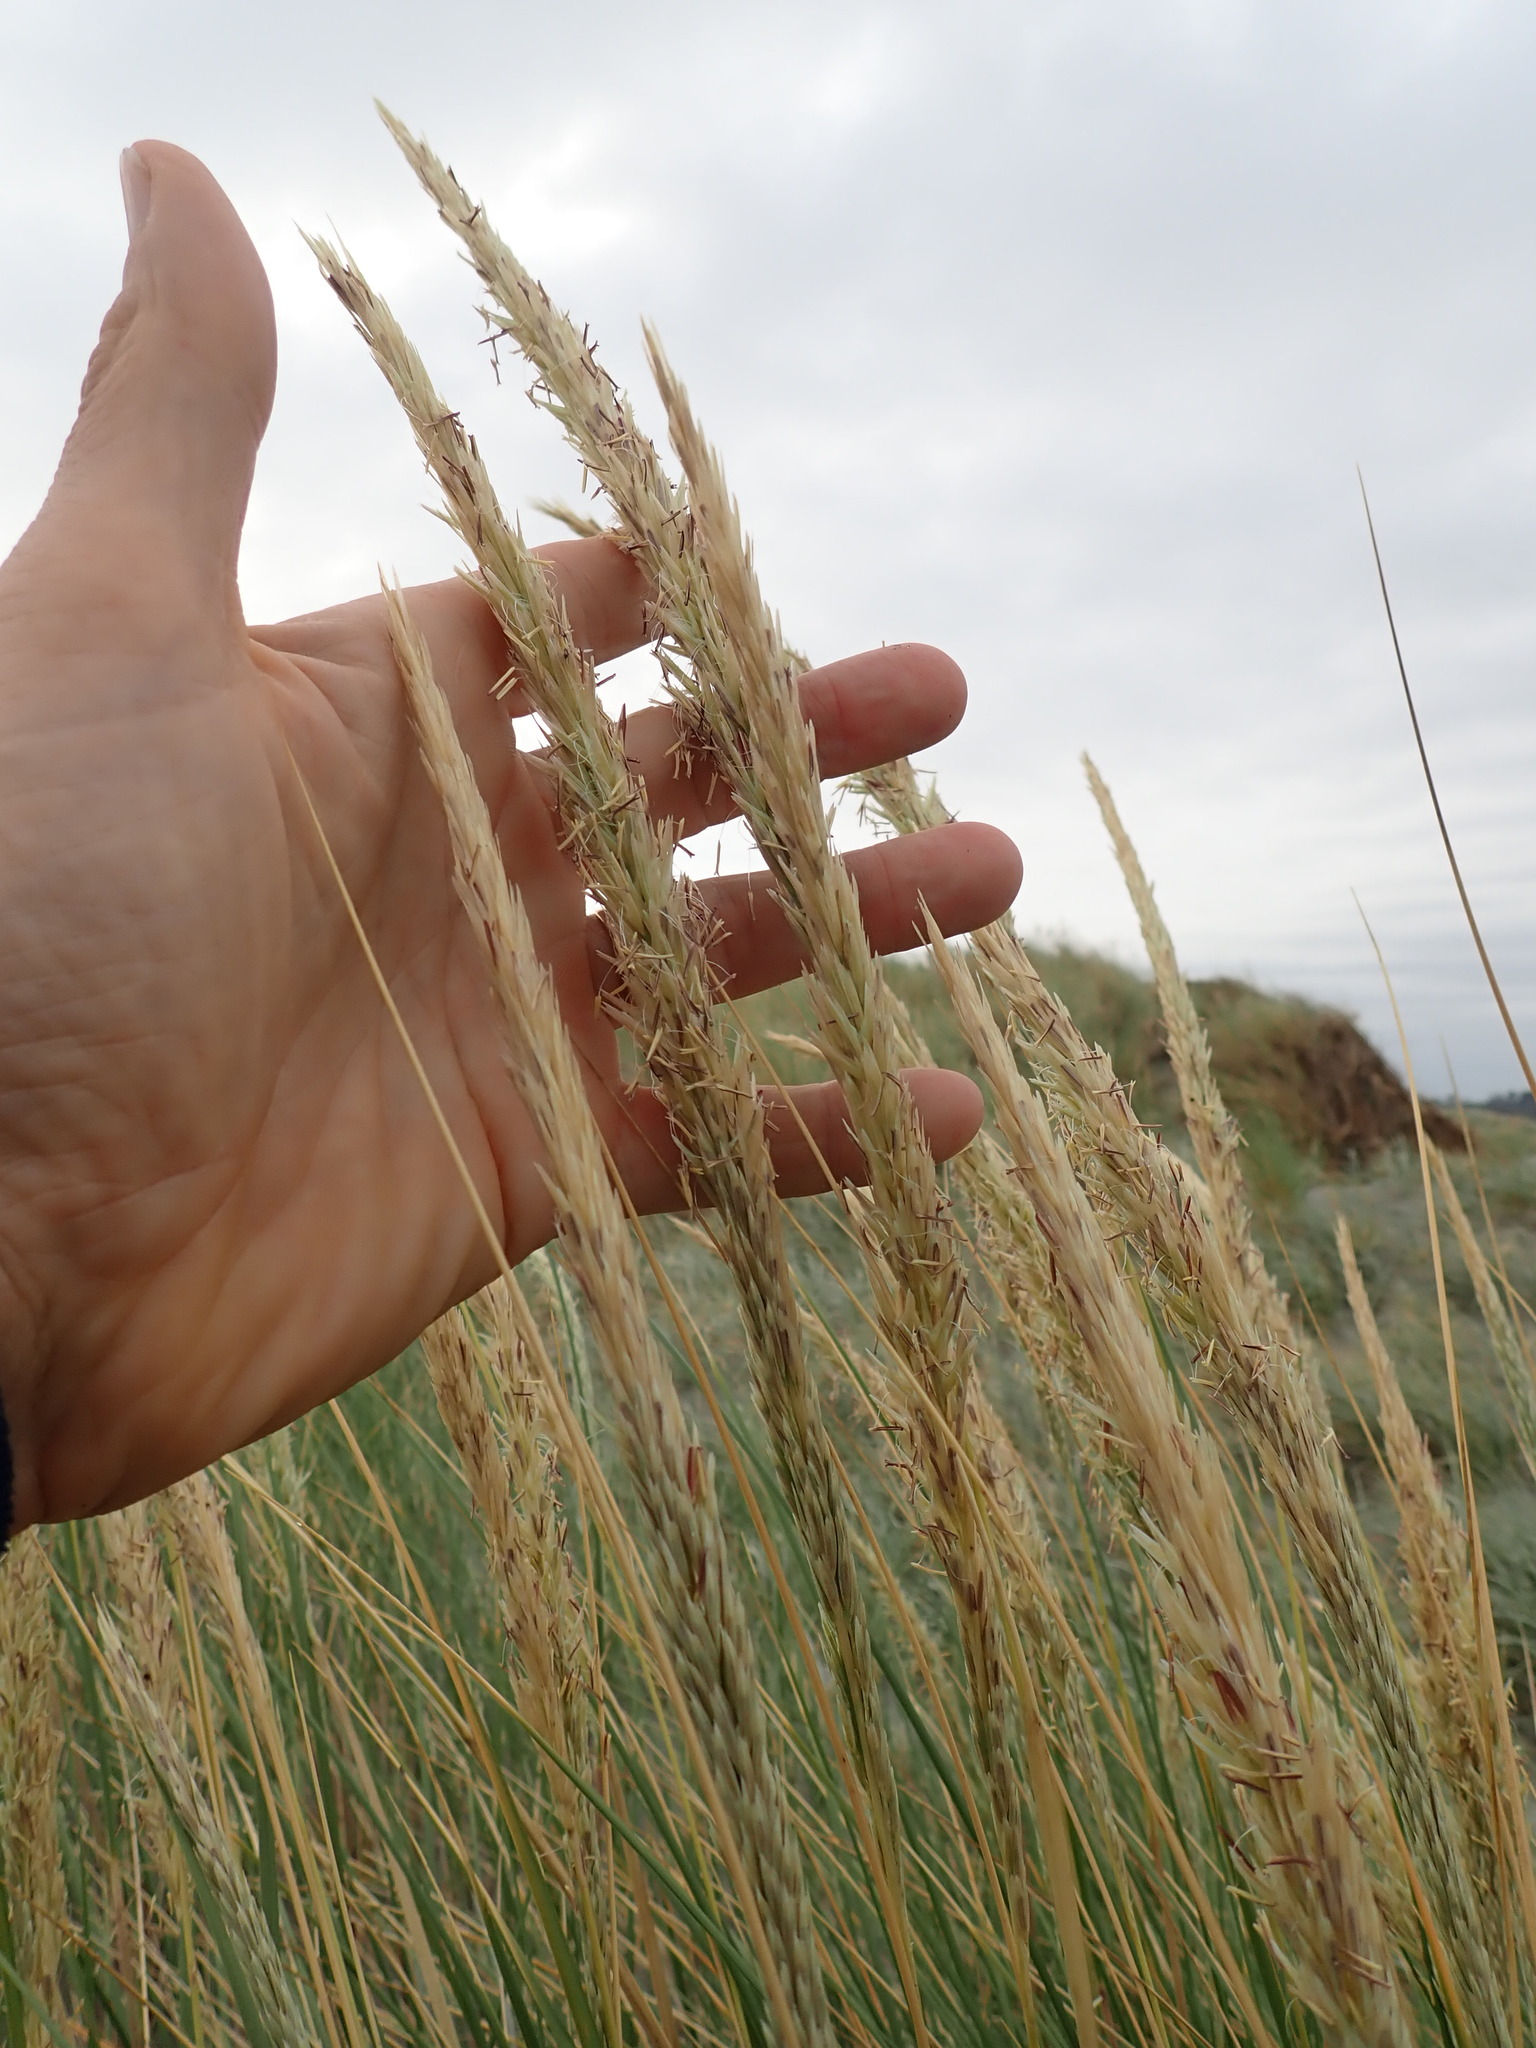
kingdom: Plantae
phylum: Tracheophyta
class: Liliopsida
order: Poales
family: Poaceae
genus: Calamagrostis
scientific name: Calamagrostis arenaria
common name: European beachgrass
